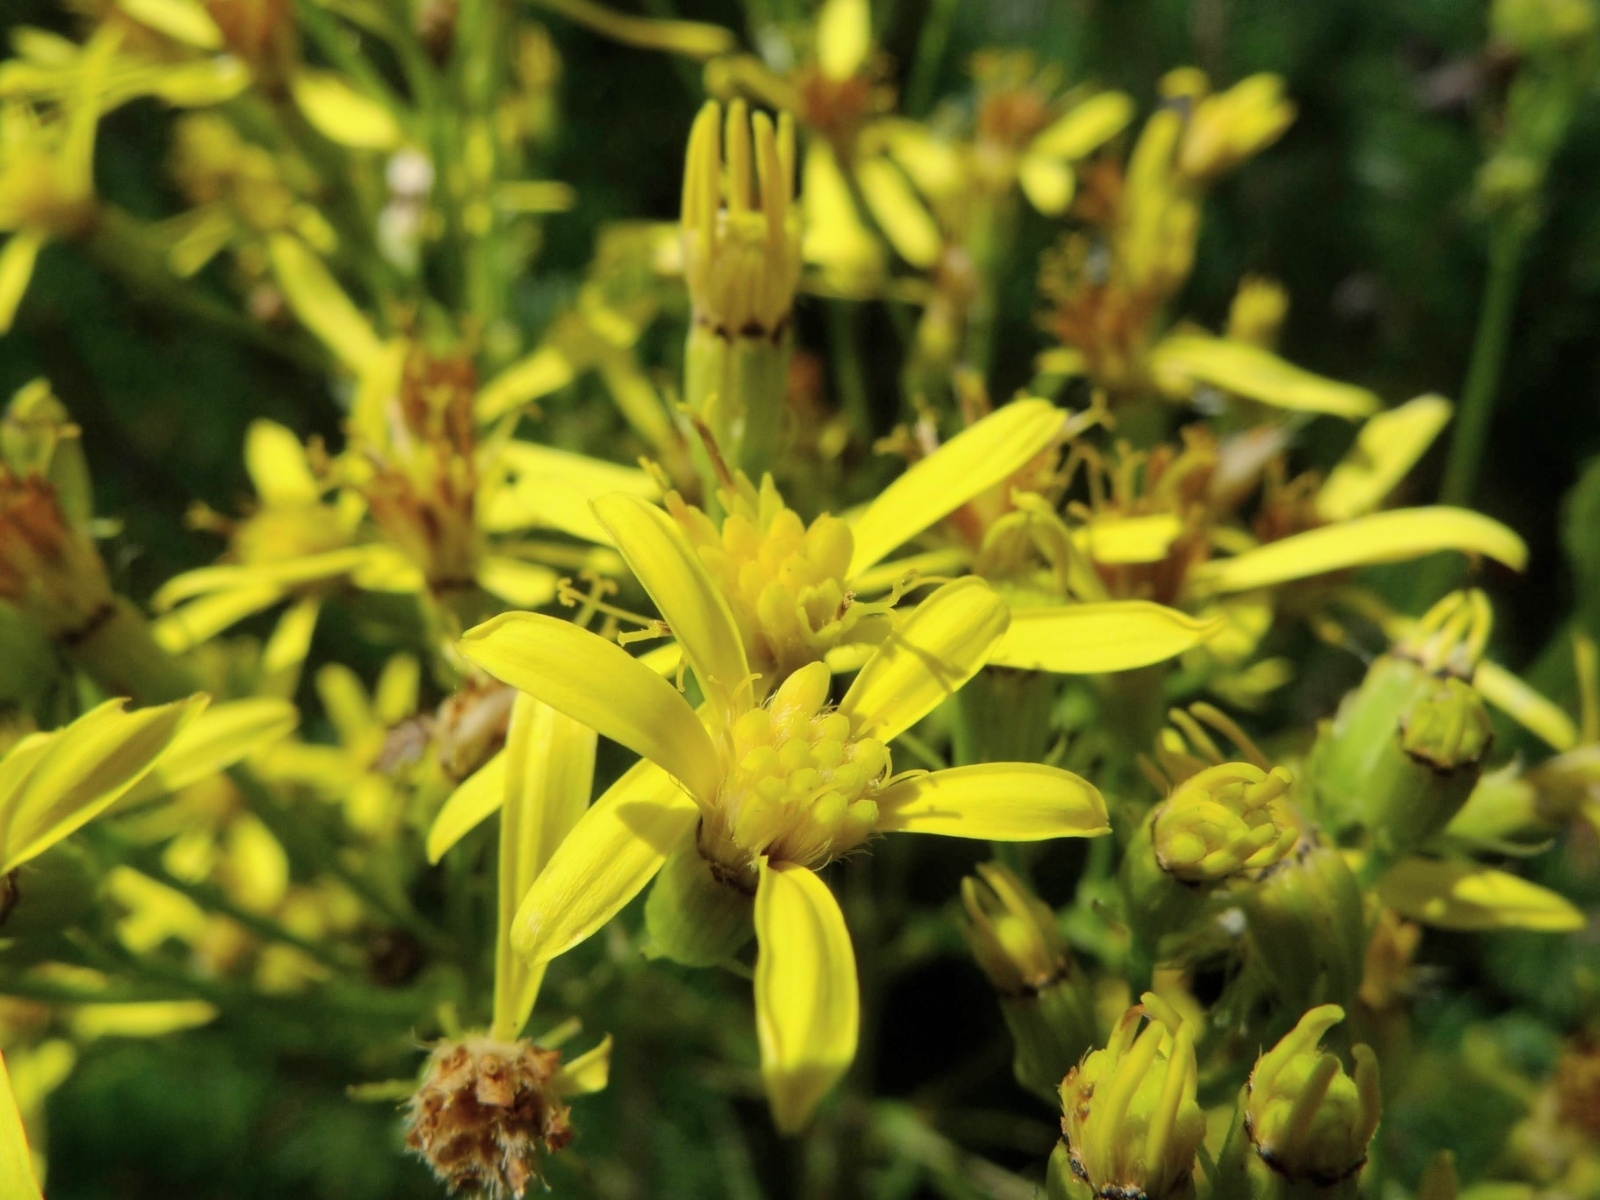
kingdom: Plantae
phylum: Tracheophyta
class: Magnoliopsida
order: Asterales
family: Asteraceae
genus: Senecio
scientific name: Senecio ovatus
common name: Wood ragwort
